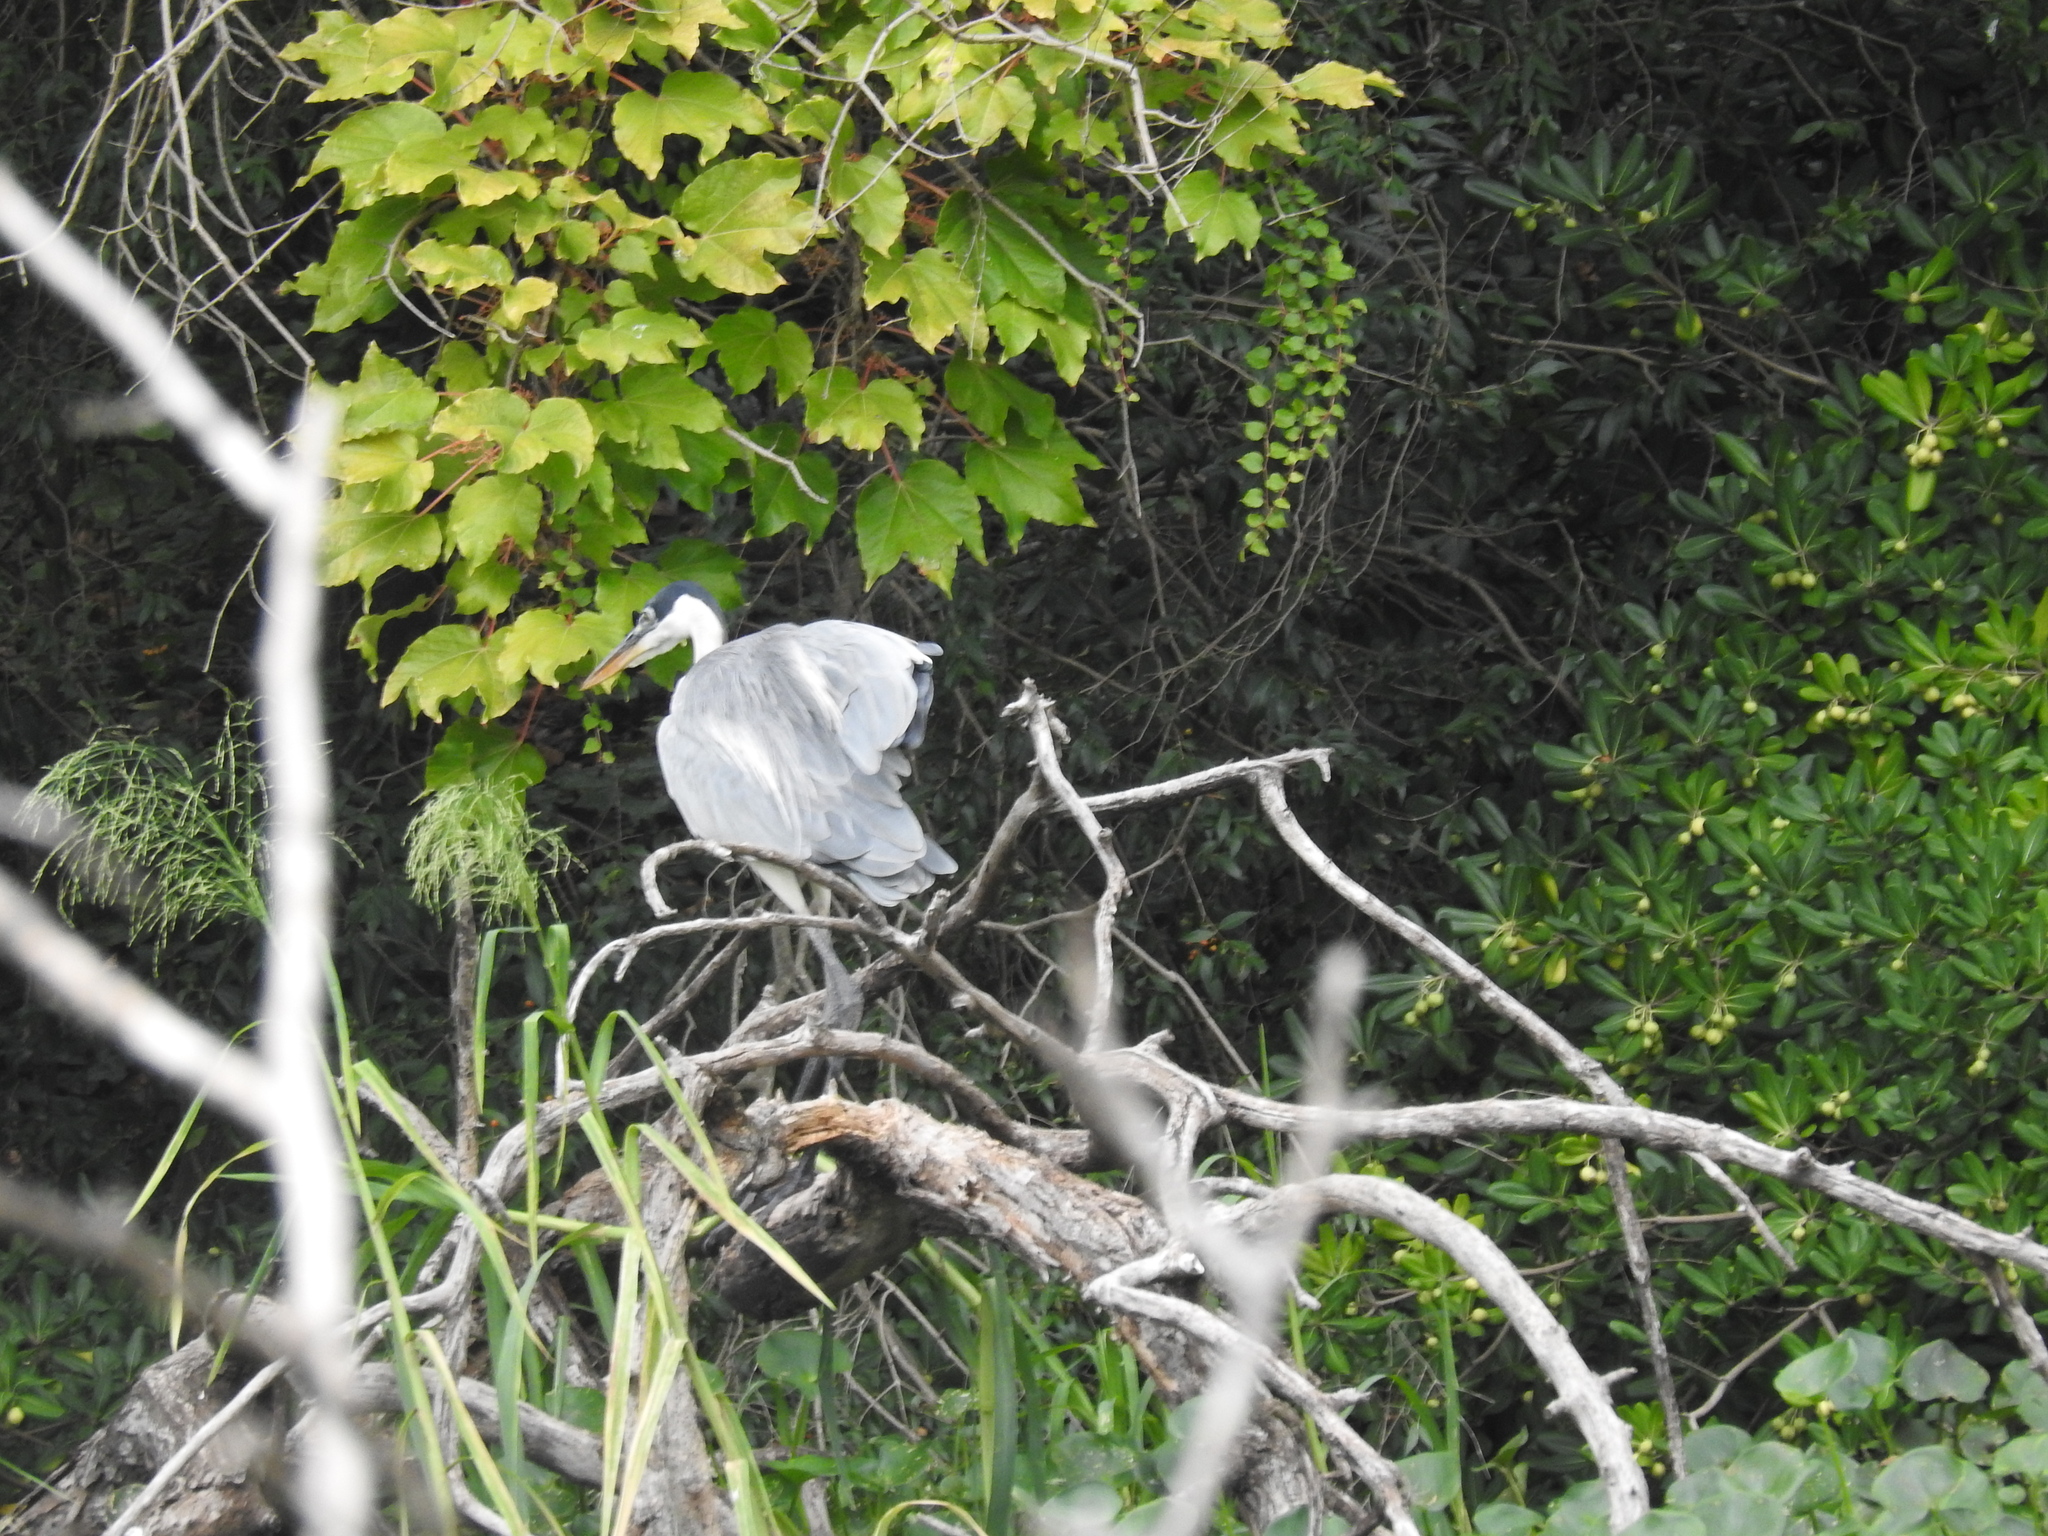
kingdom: Animalia
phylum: Chordata
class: Aves
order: Pelecaniformes
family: Ardeidae
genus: Ardea
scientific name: Ardea cocoi
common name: Cocoi heron
